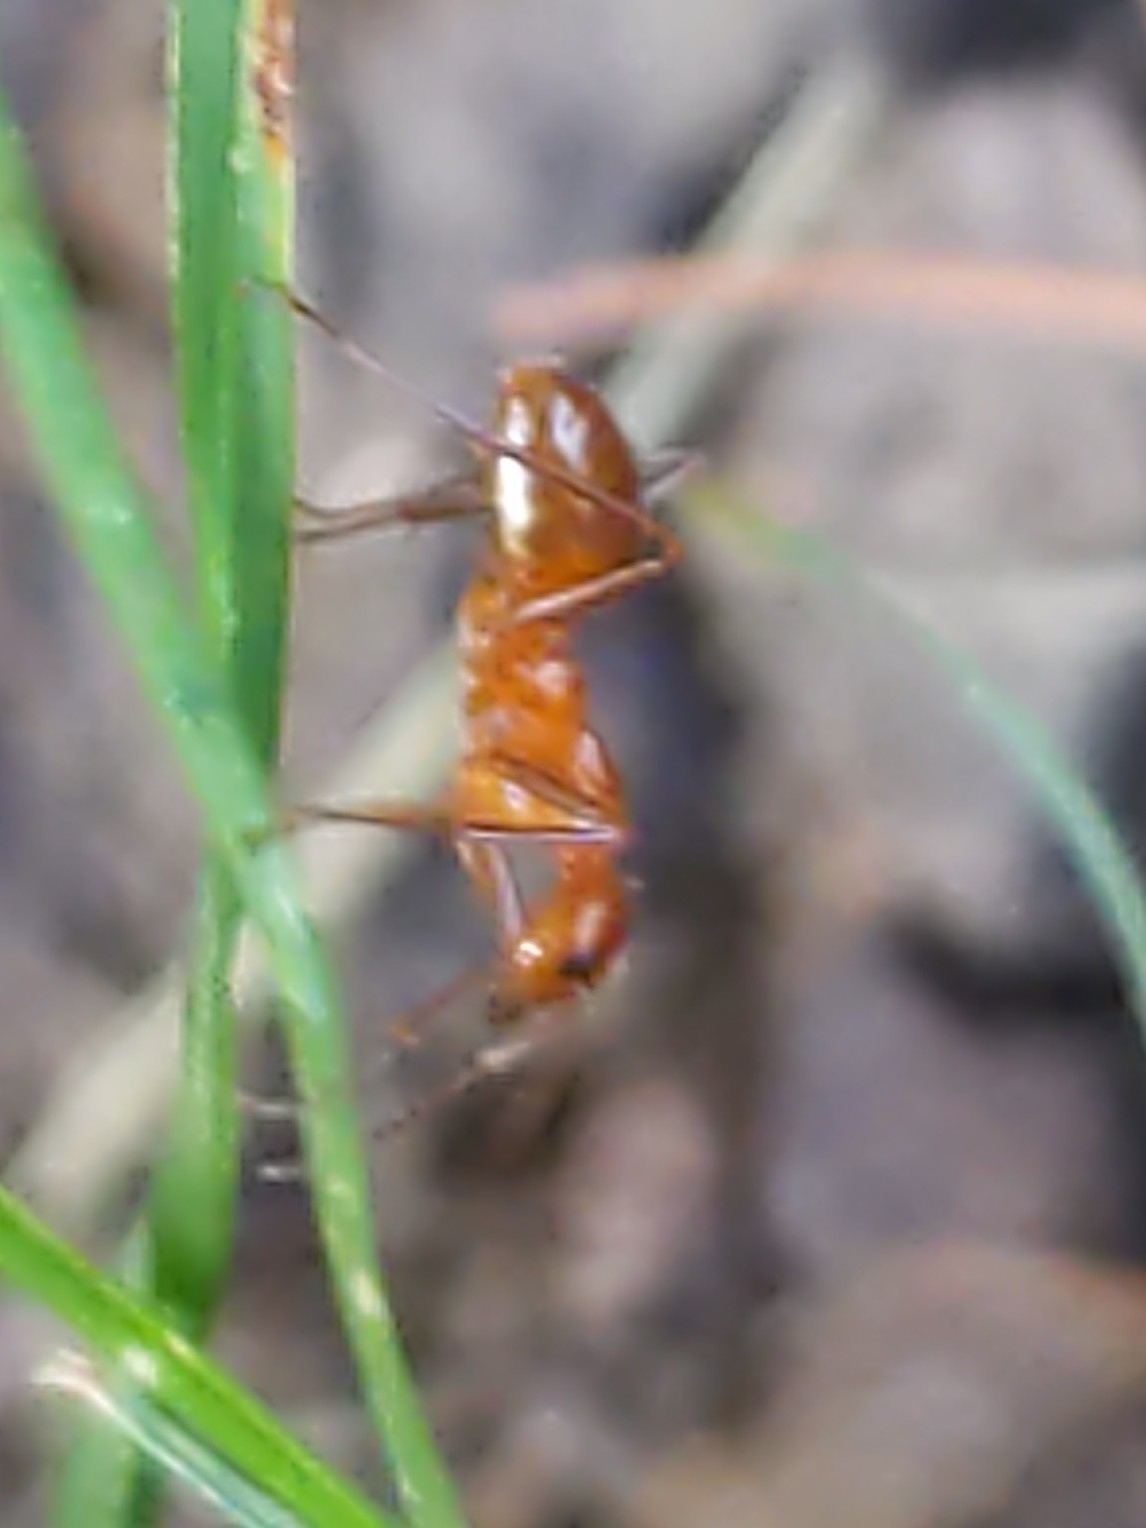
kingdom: Animalia
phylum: Arthropoda
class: Insecta
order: Hymenoptera
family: Formicidae
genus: Formica
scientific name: Formica
